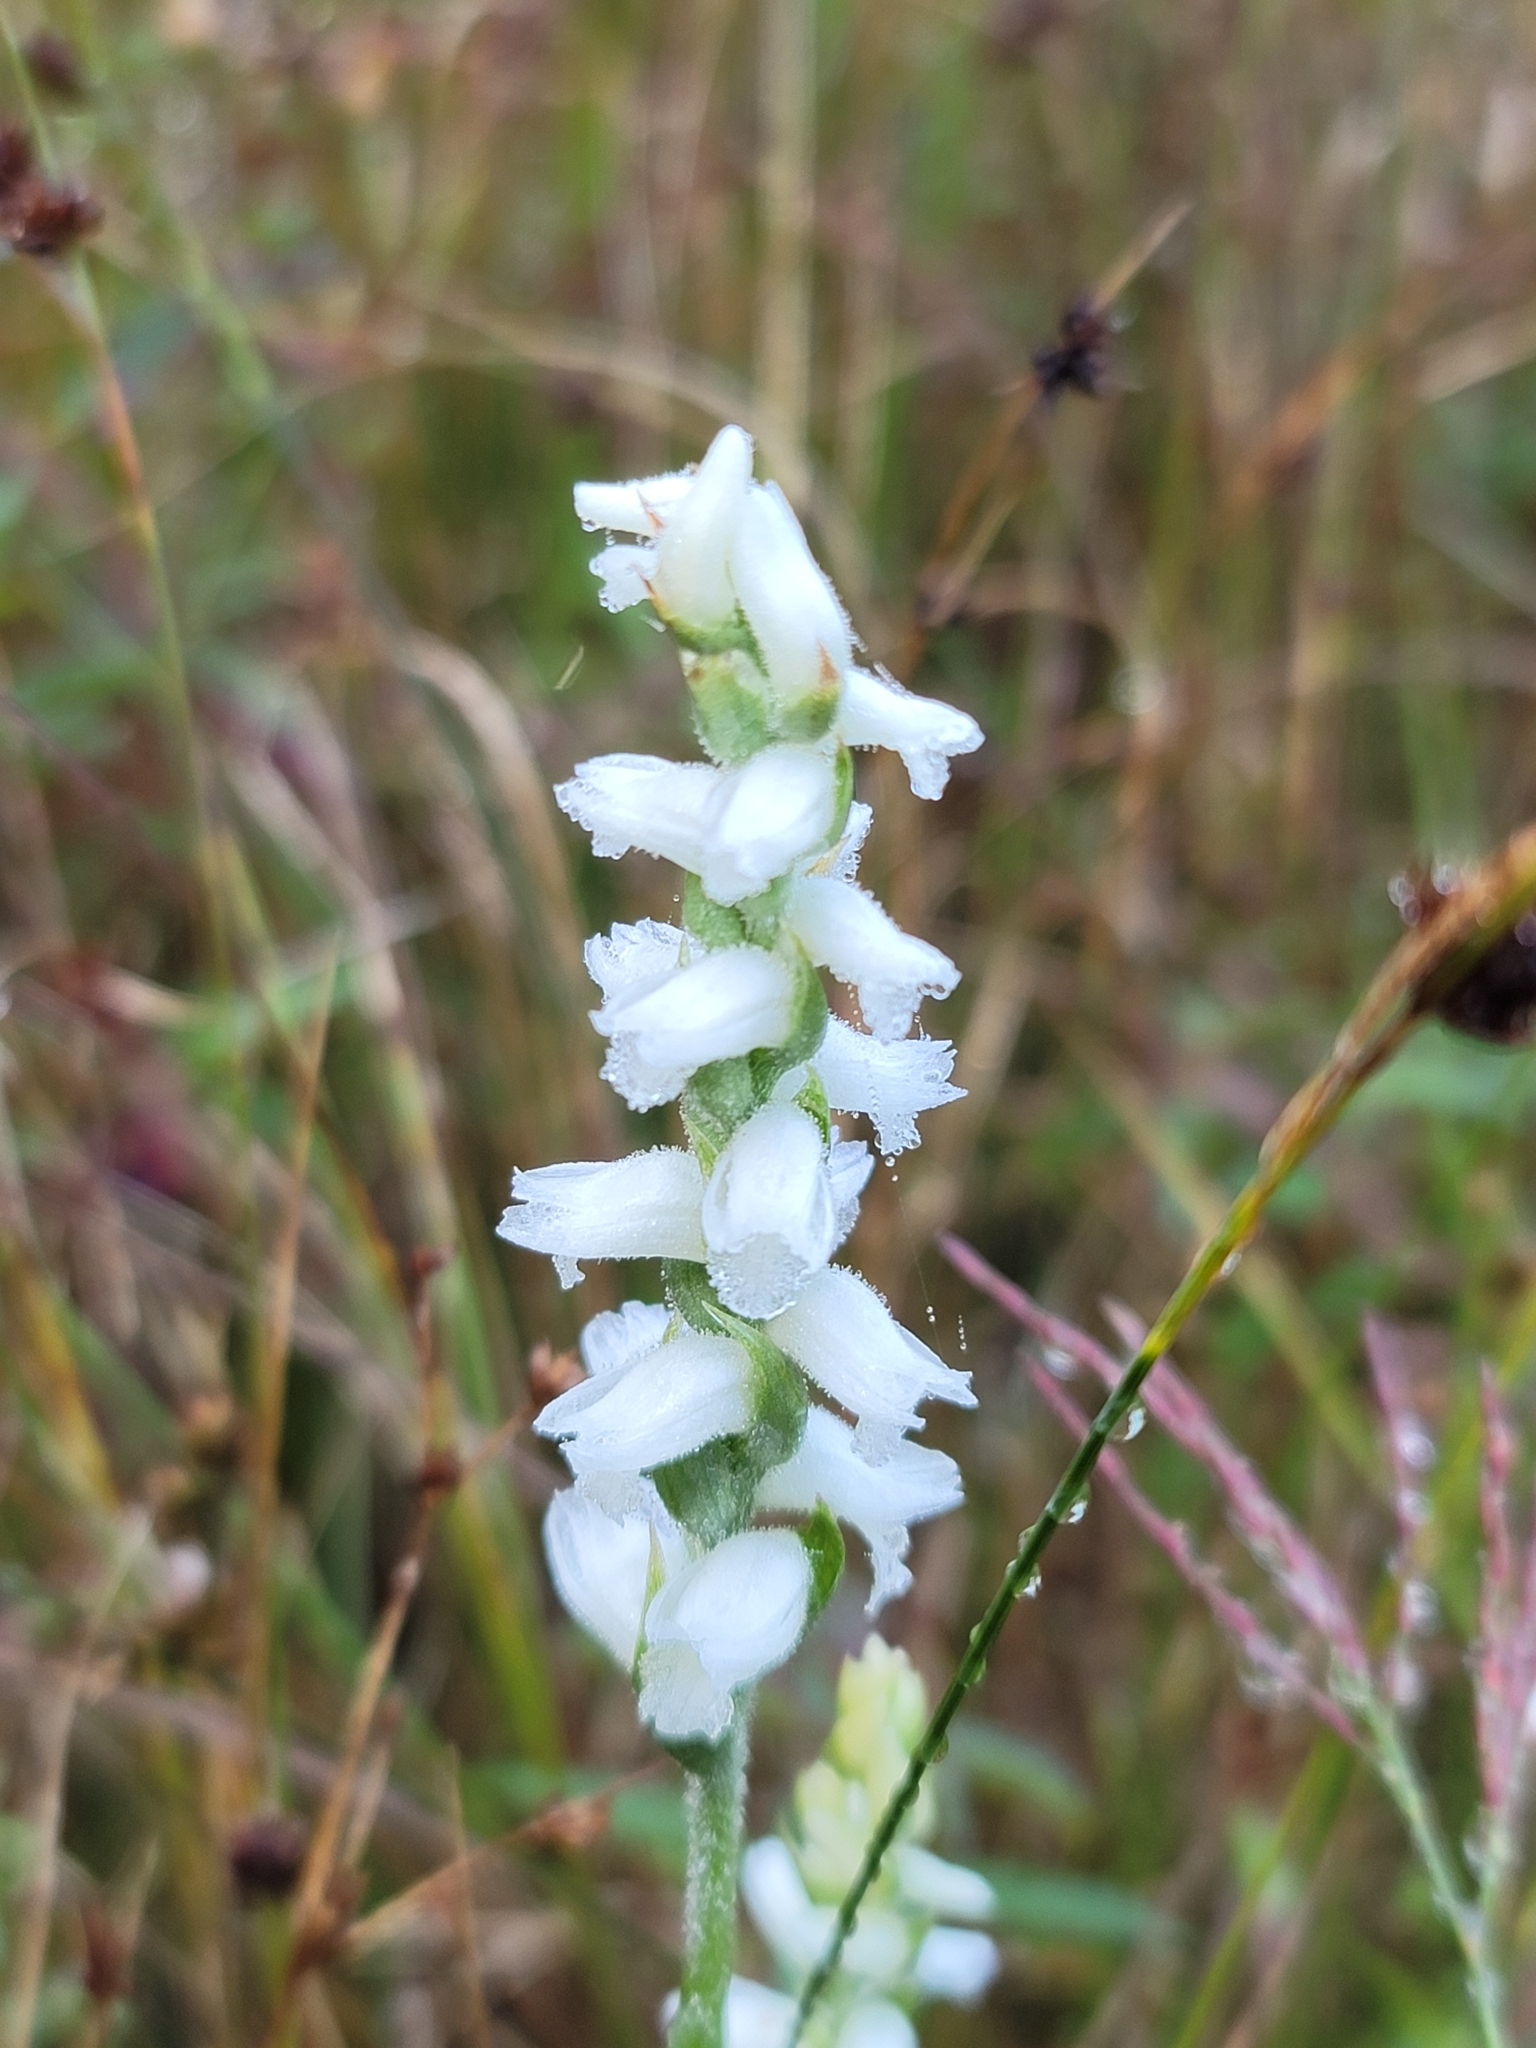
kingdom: Plantae
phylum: Tracheophyta
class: Liliopsida
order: Asparagales
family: Orchidaceae
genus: Spiranthes
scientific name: Spiranthes cernua
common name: Dropping ladies'-tresses
